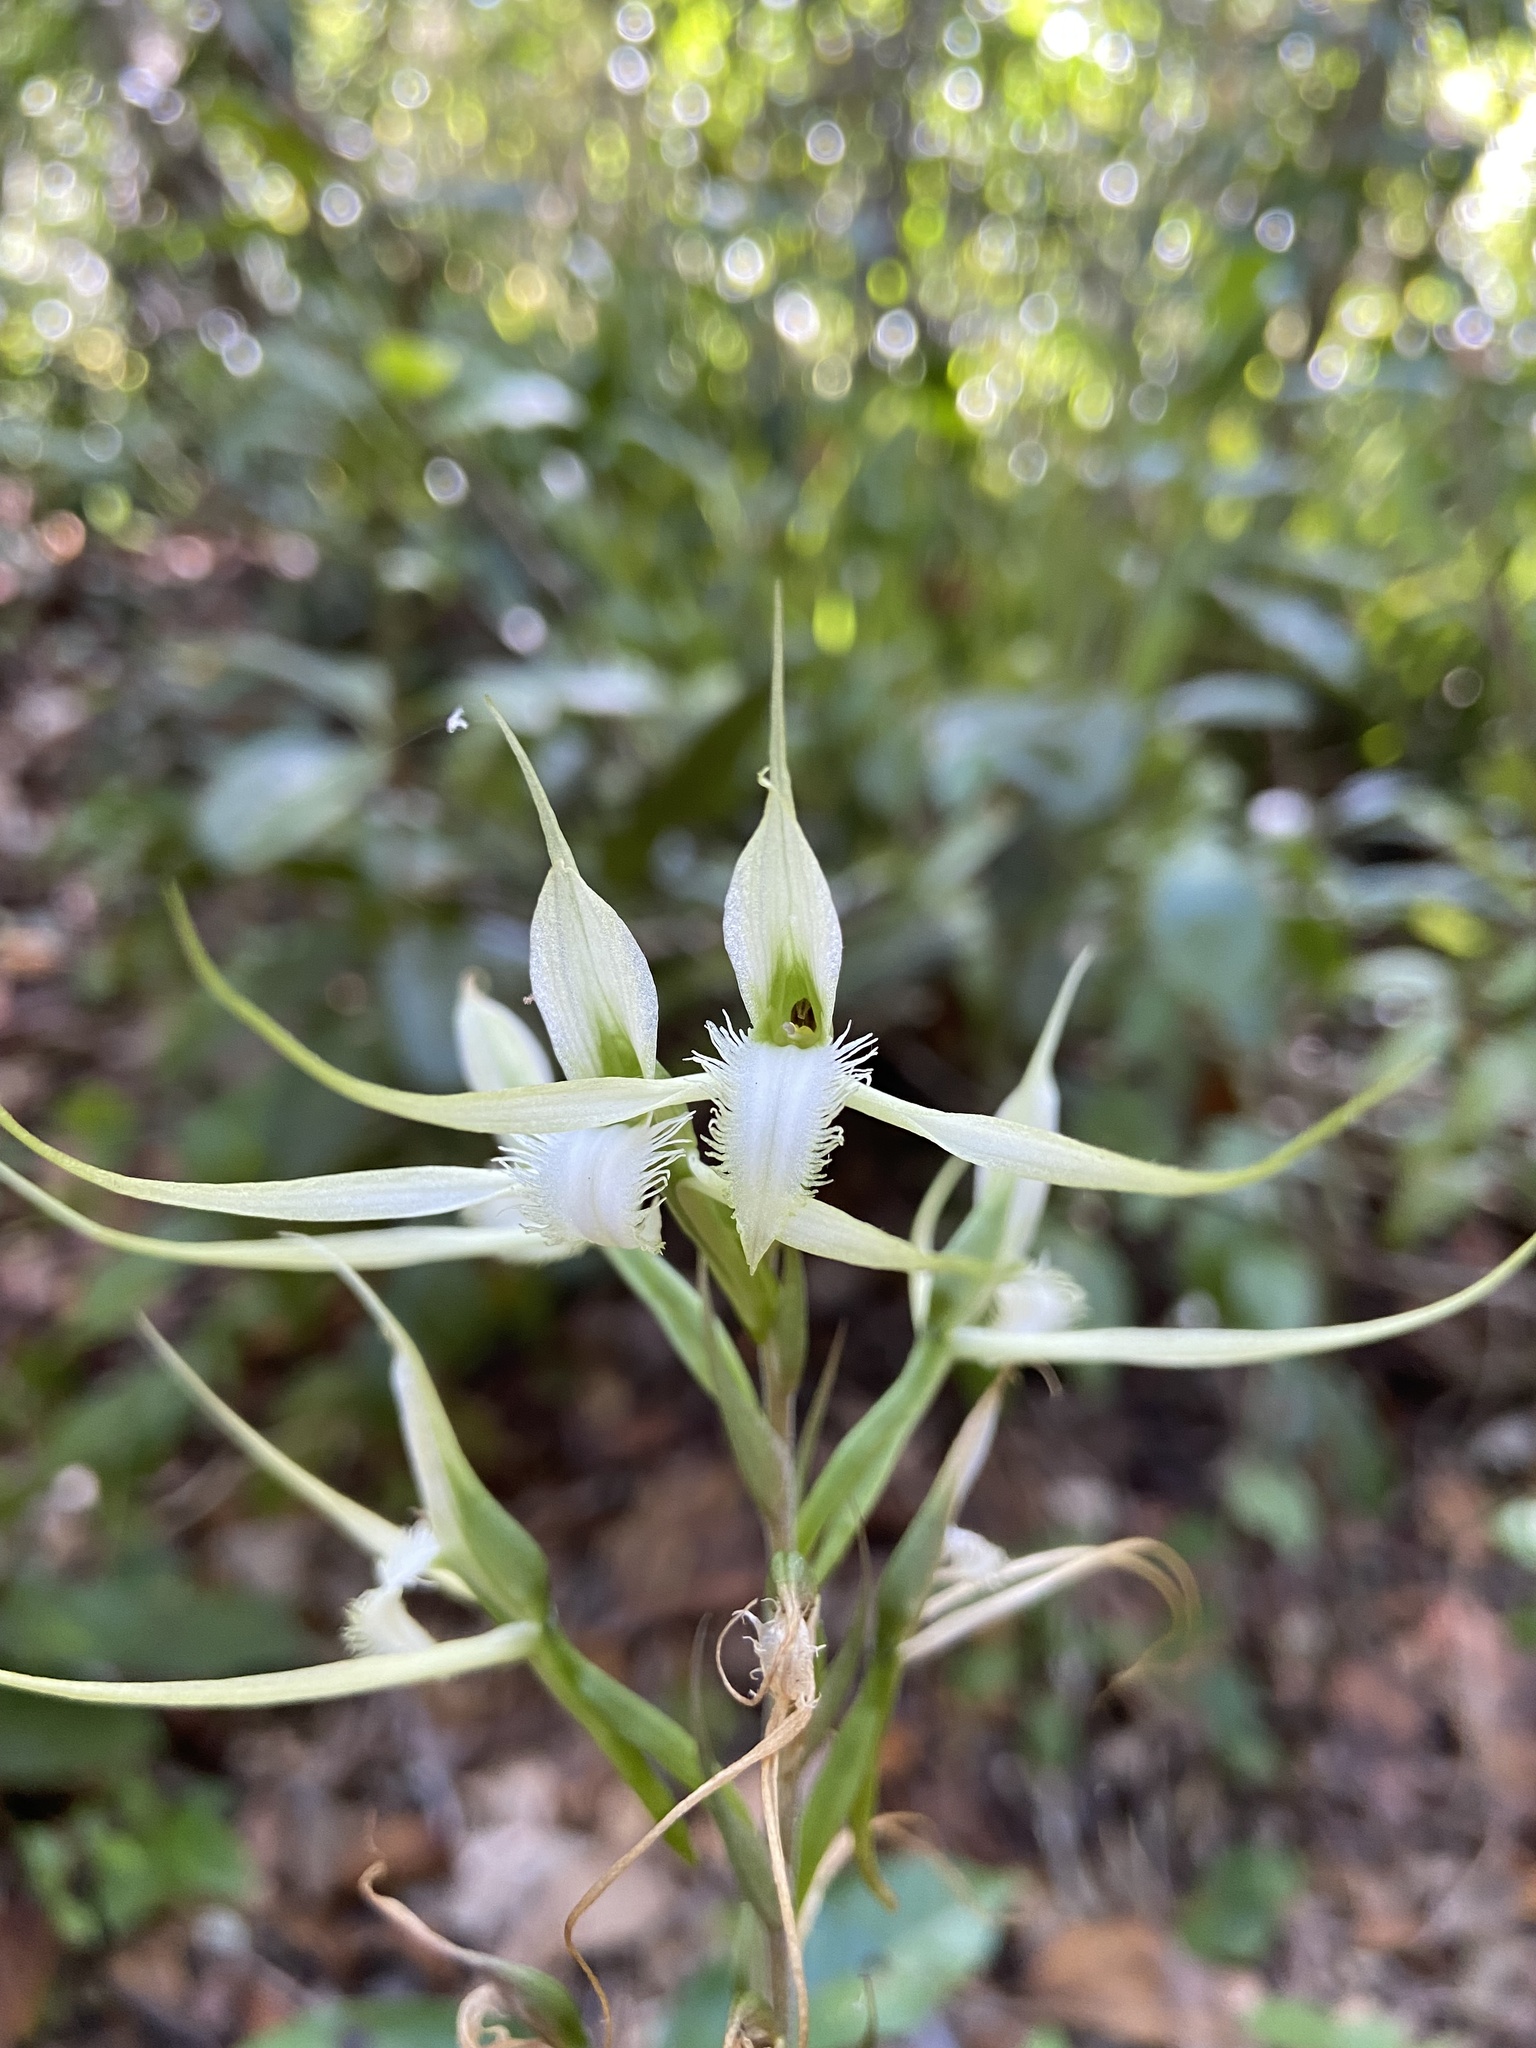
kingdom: Plantae
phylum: Tracheophyta
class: Liliopsida
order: Asparagales
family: Orchidaceae
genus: Eltroplectris
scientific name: Eltroplectris calcarata
